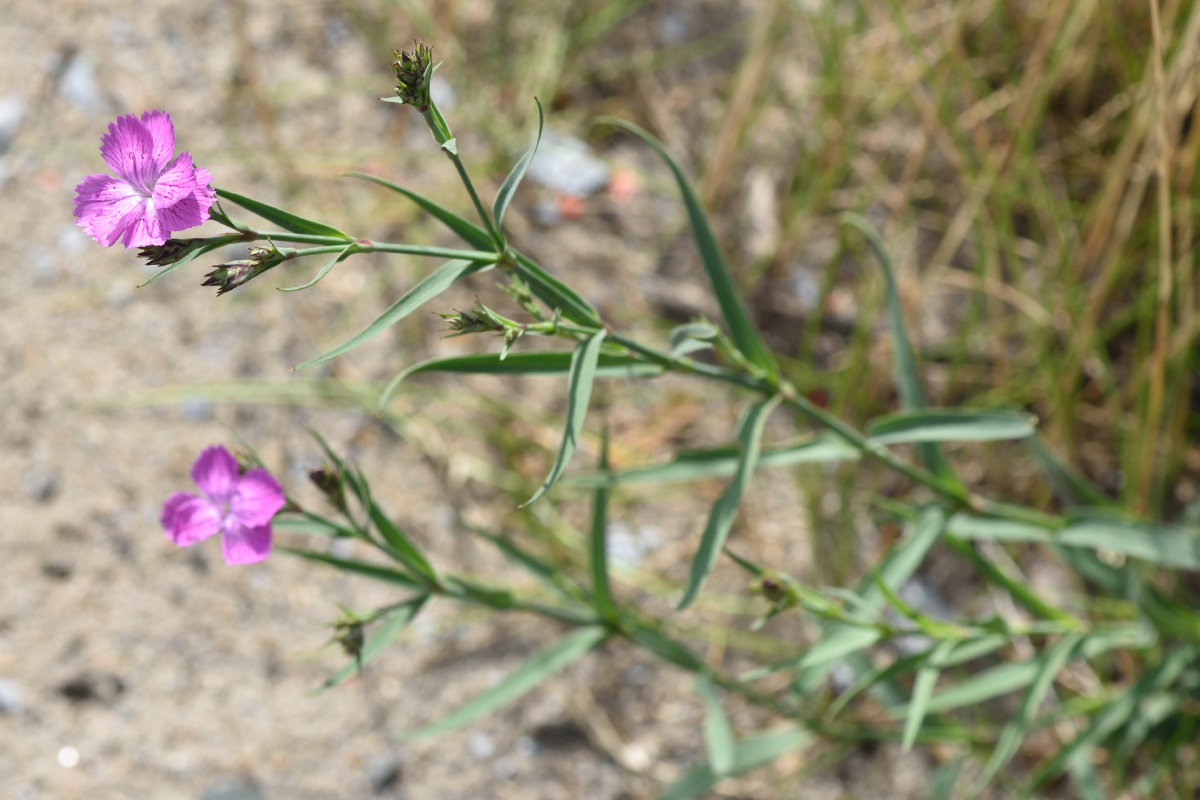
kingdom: Plantae
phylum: Tracheophyta
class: Magnoliopsida
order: Caryophyllales
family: Caryophyllaceae
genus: Dianthus
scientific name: Dianthus chinensis
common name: Rainbow pink
